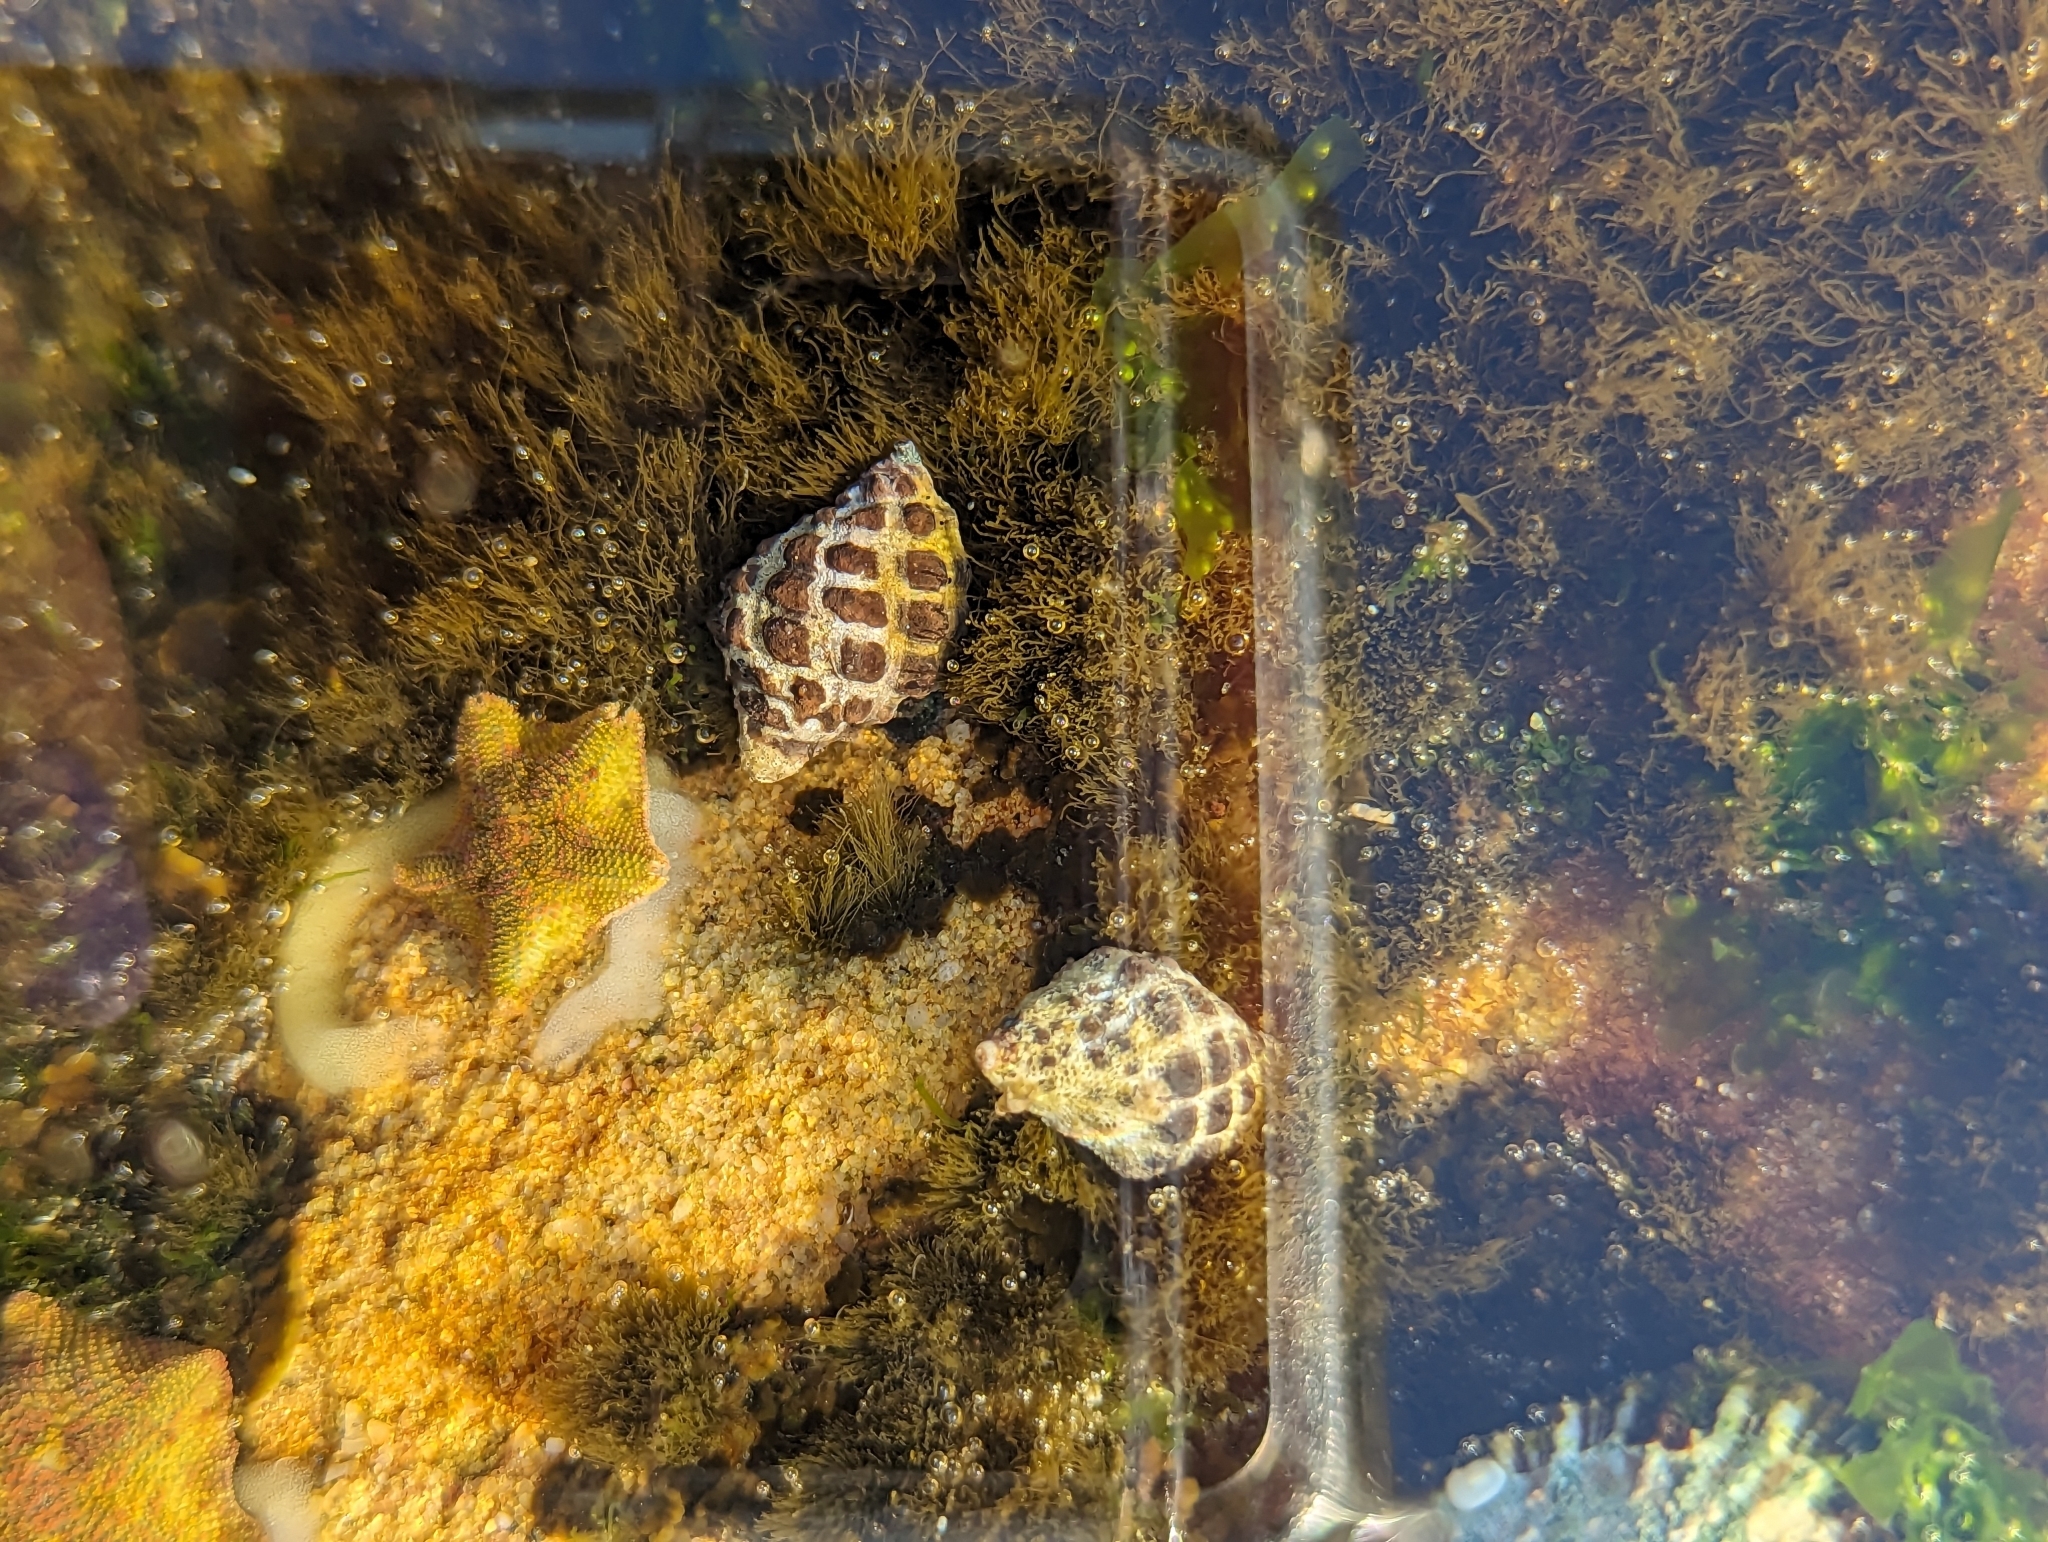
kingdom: Animalia
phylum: Mollusca
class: Gastropoda
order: Neogastropoda
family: Muricidae
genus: Tenguella
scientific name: Tenguella marginalba
